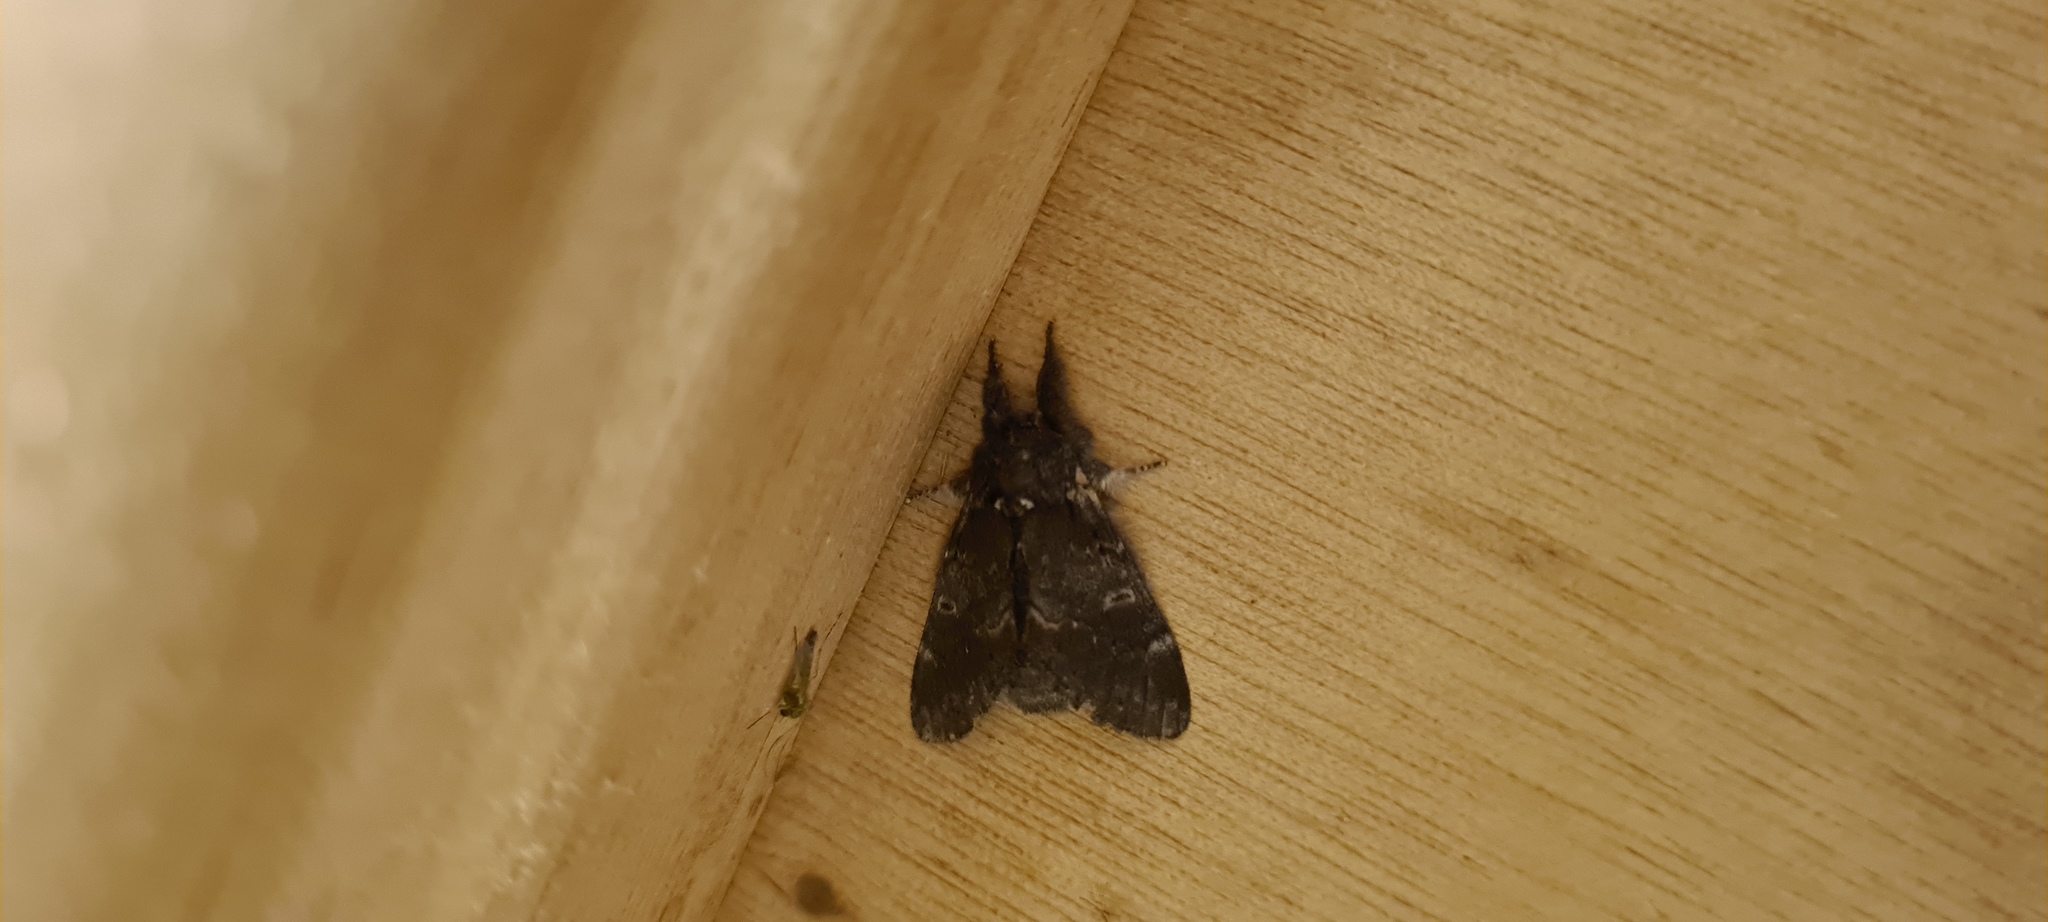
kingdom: Animalia
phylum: Arthropoda
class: Insecta
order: Lepidoptera
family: Notodontidae
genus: Notodonta
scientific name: Notodonta dromedarius
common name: Iron prominent
